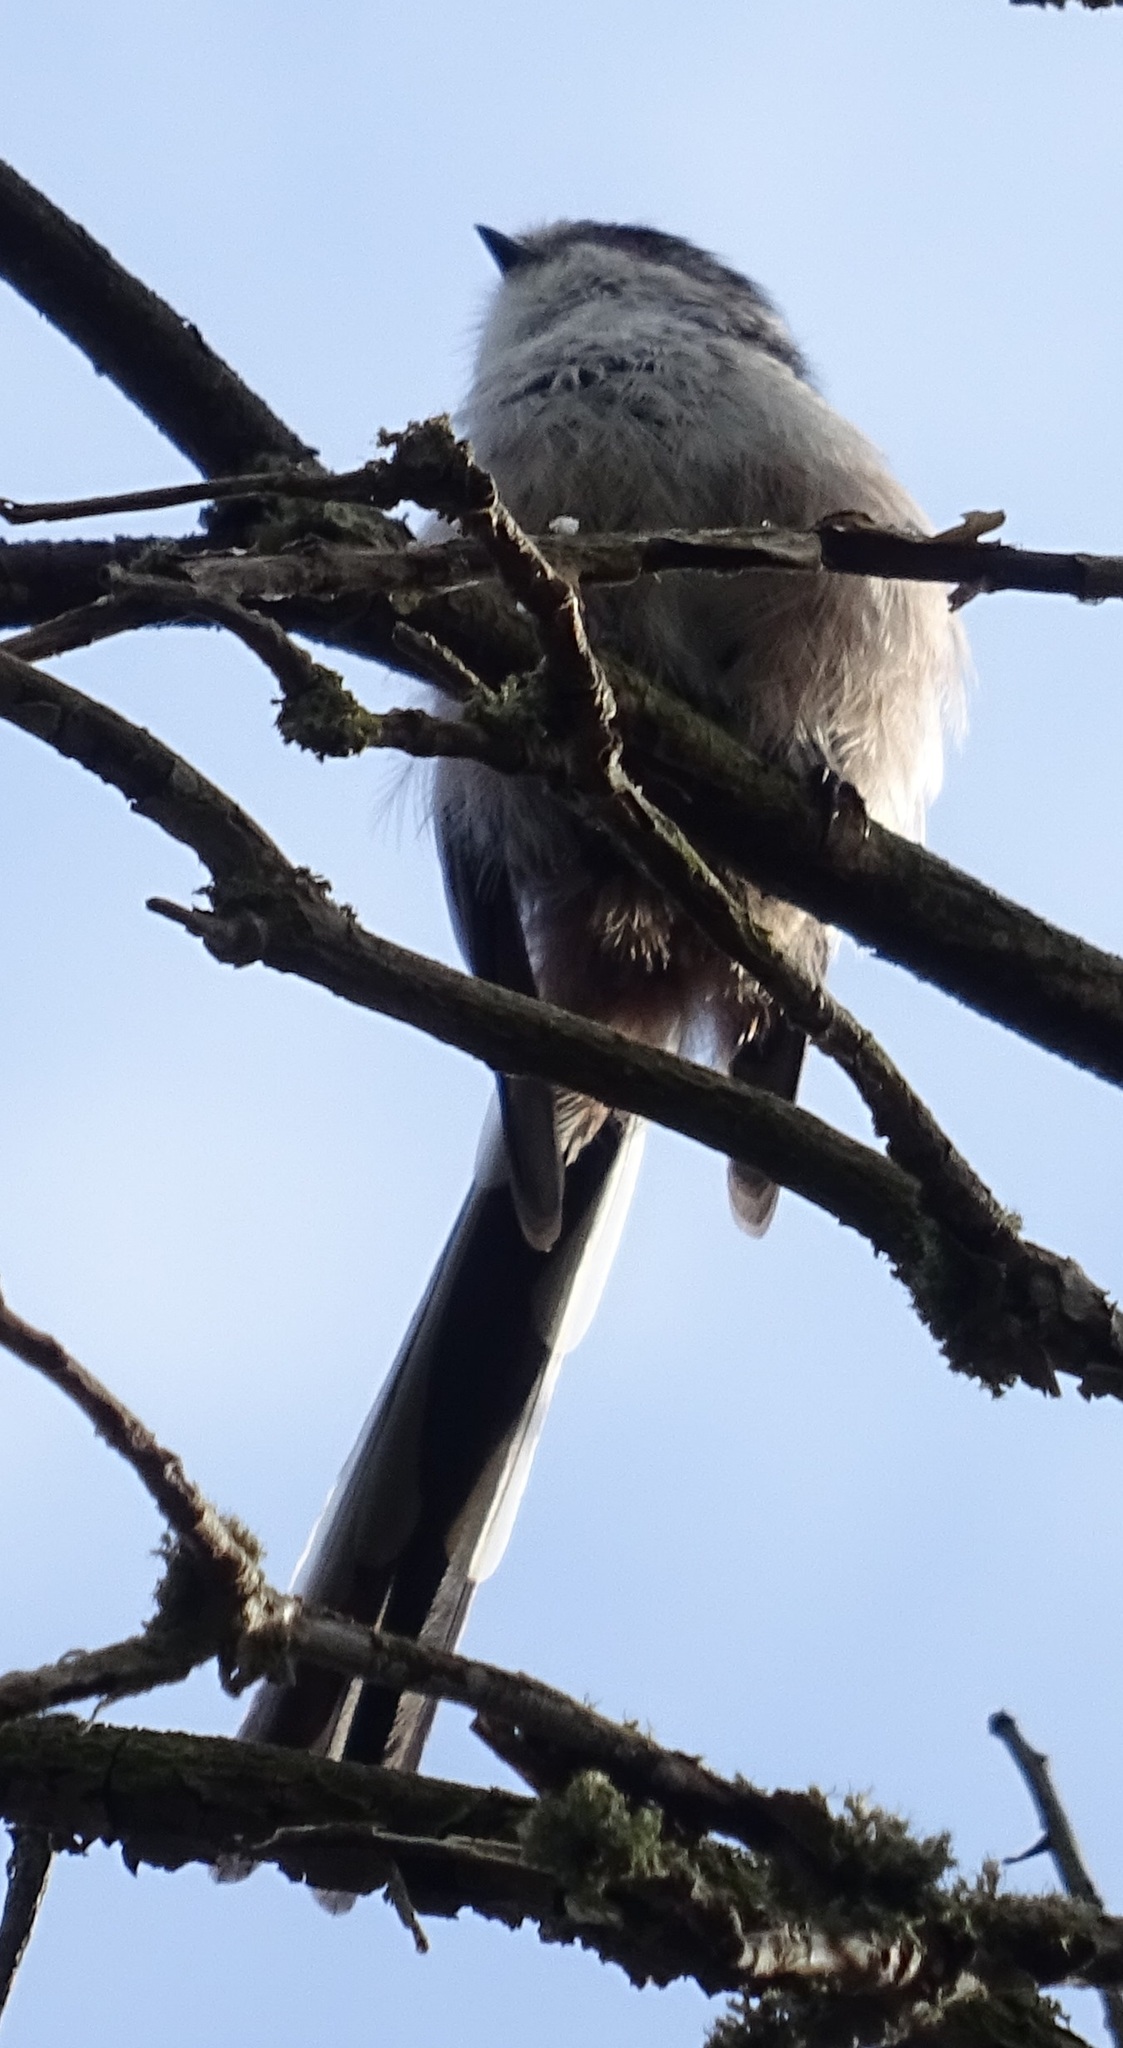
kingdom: Animalia
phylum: Chordata
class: Aves
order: Passeriformes
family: Aegithalidae
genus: Aegithalos
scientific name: Aegithalos caudatus
